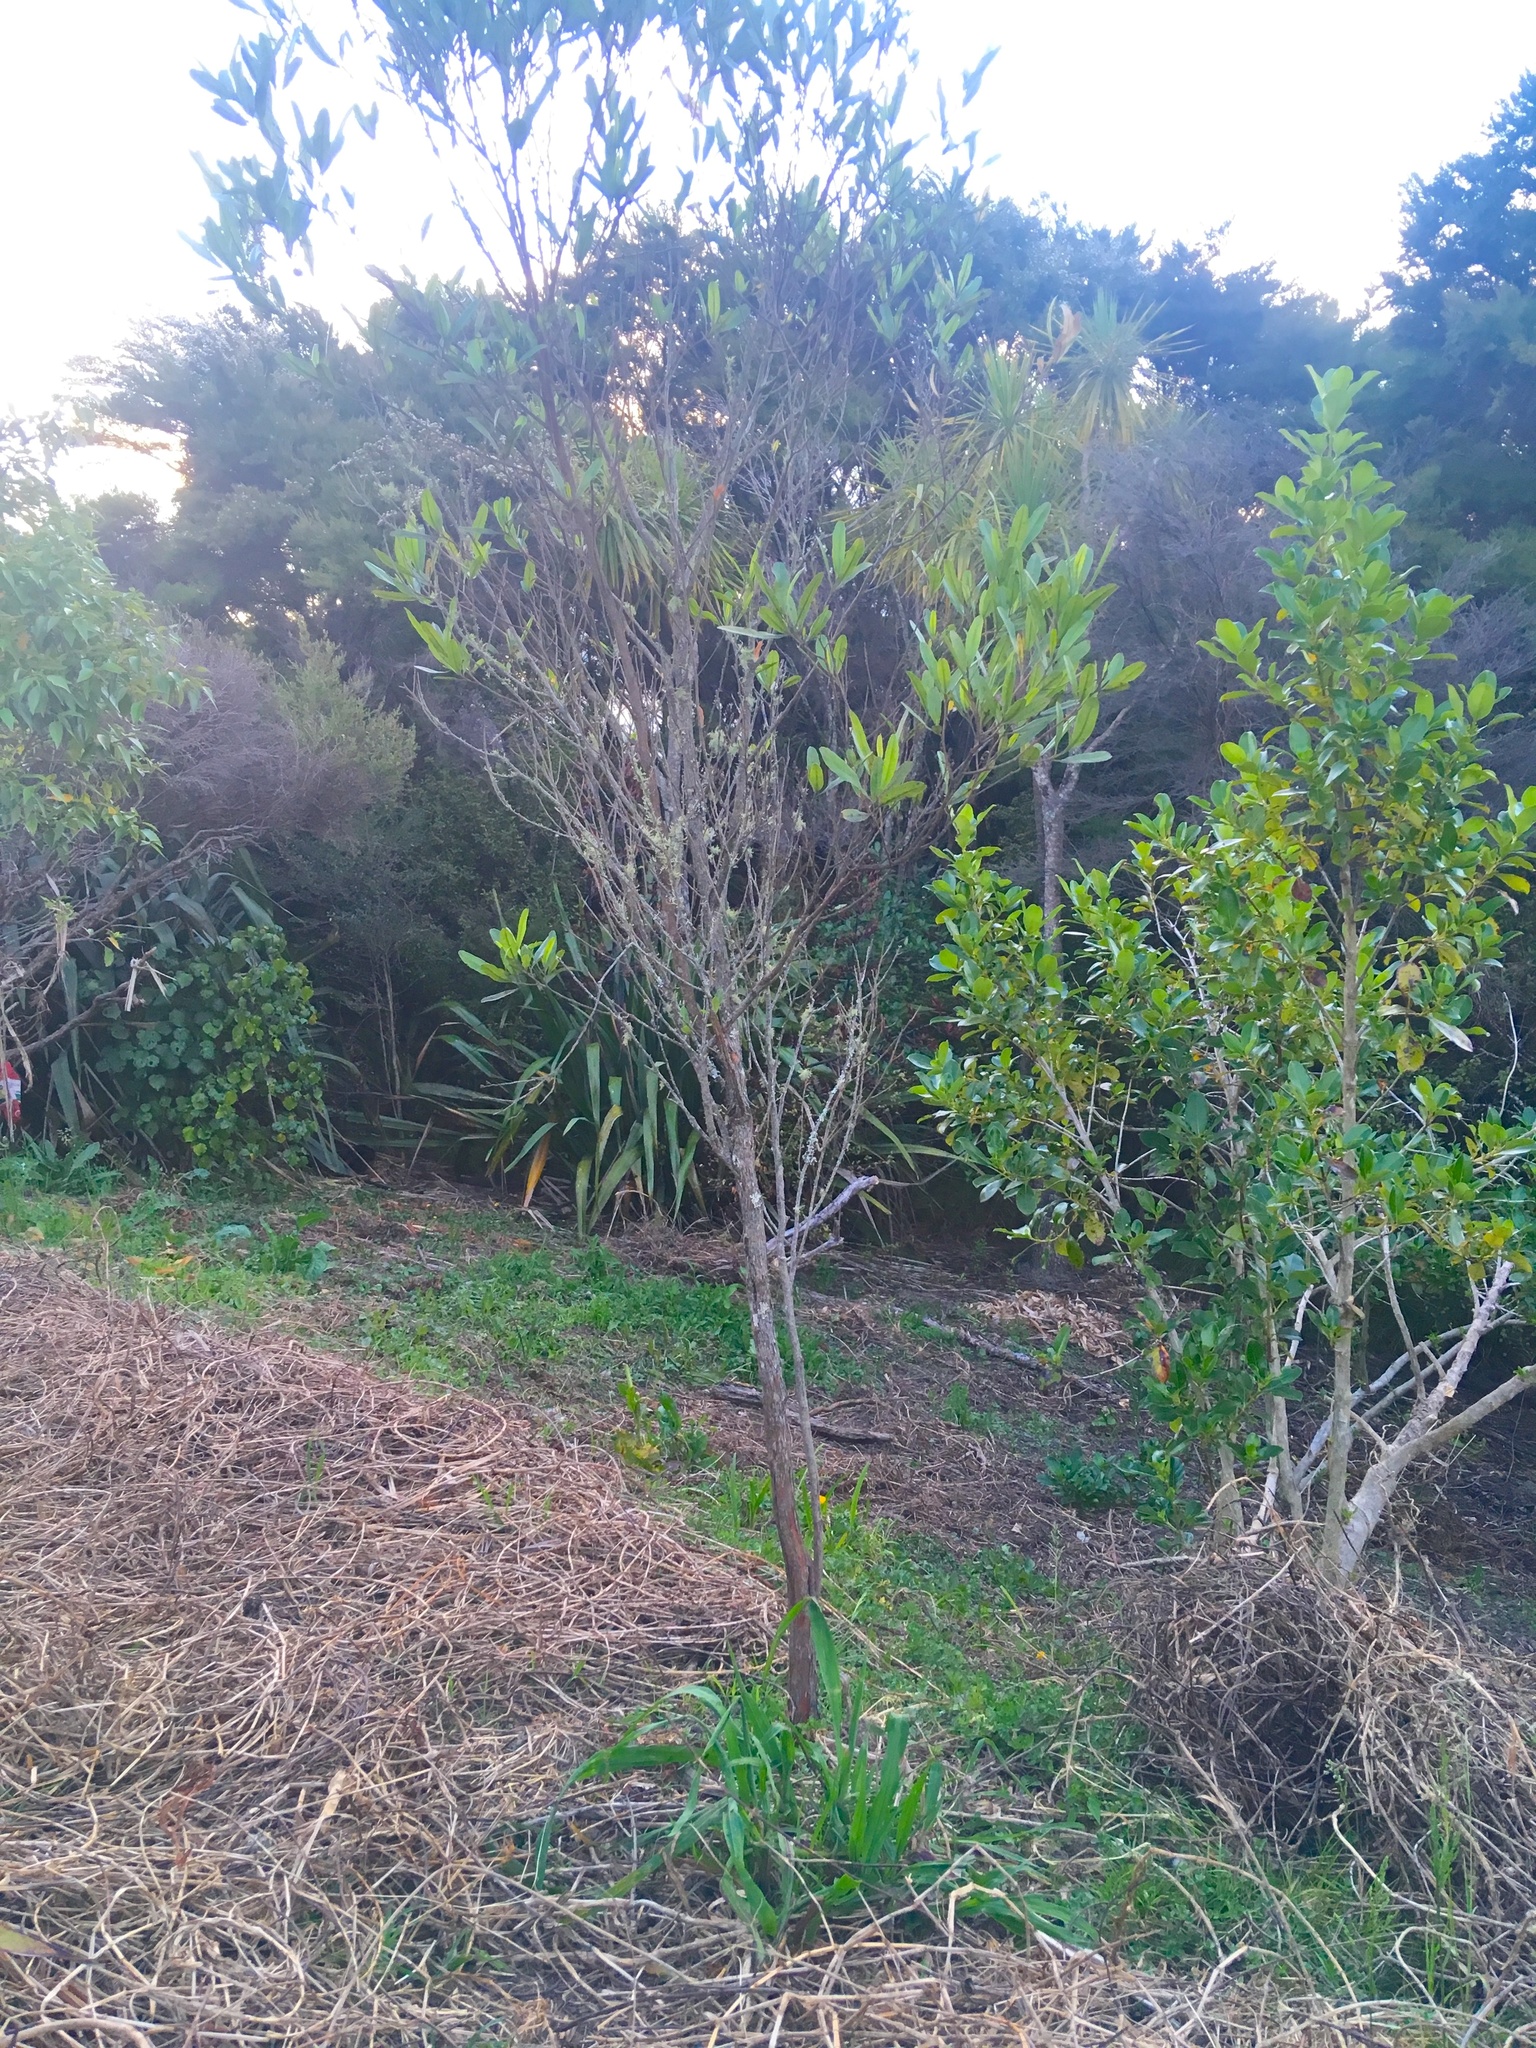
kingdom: Plantae
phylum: Tracheophyta
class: Magnoliopsida
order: Sapindales
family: Sapindaceae
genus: Dodonaea
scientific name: Dodonaea viscosa
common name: Hopbush
